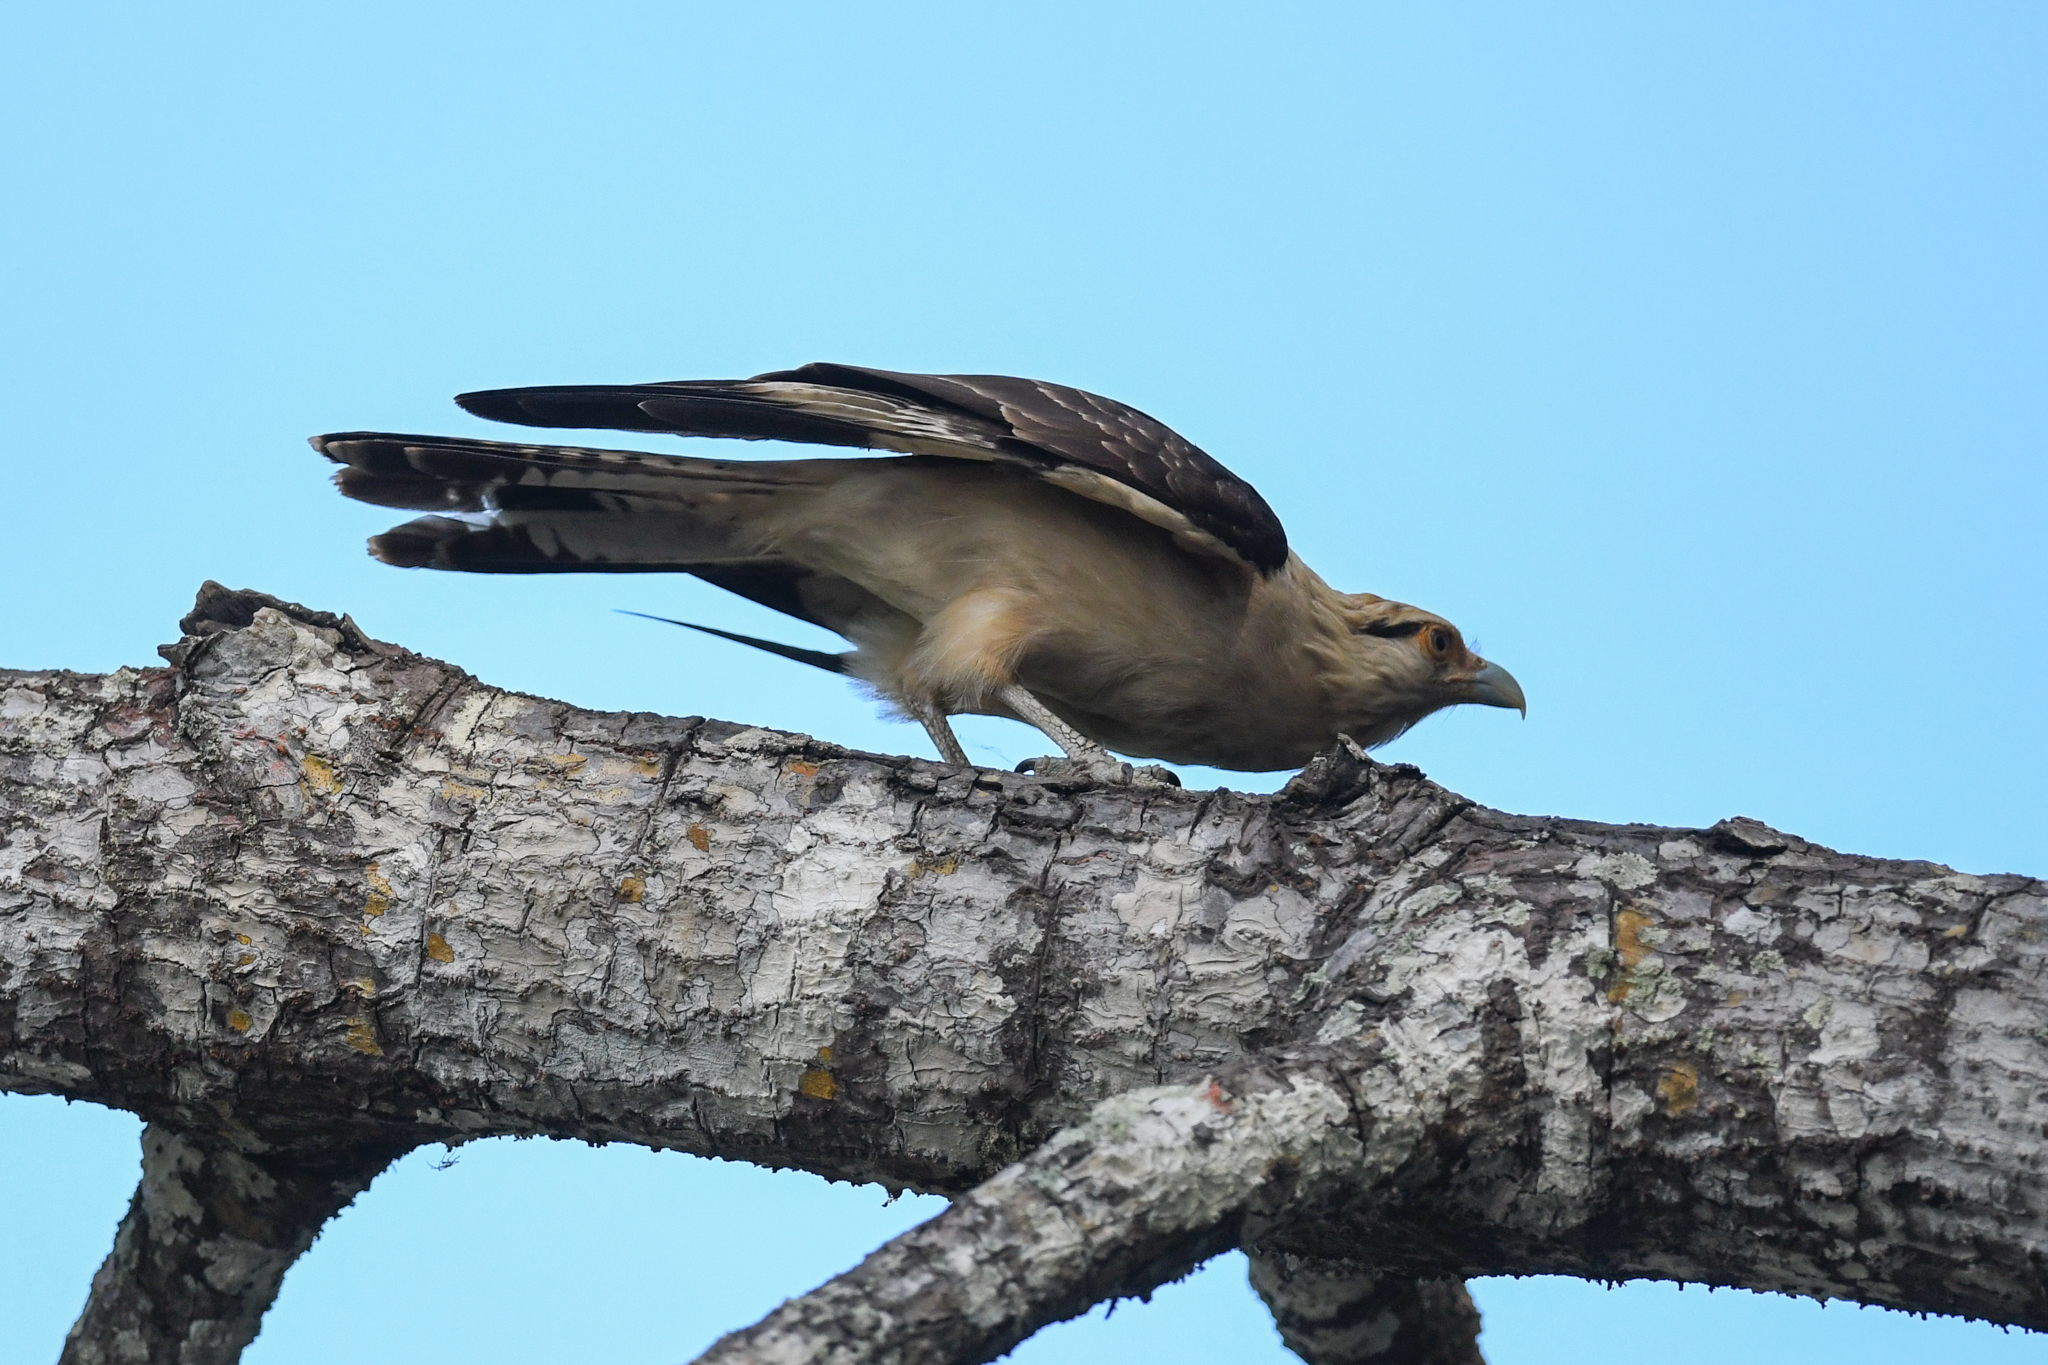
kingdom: Animalia
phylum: Chordata
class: Aves
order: Falconiformes
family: Falconidae
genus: Daptrius
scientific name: Daptrius
